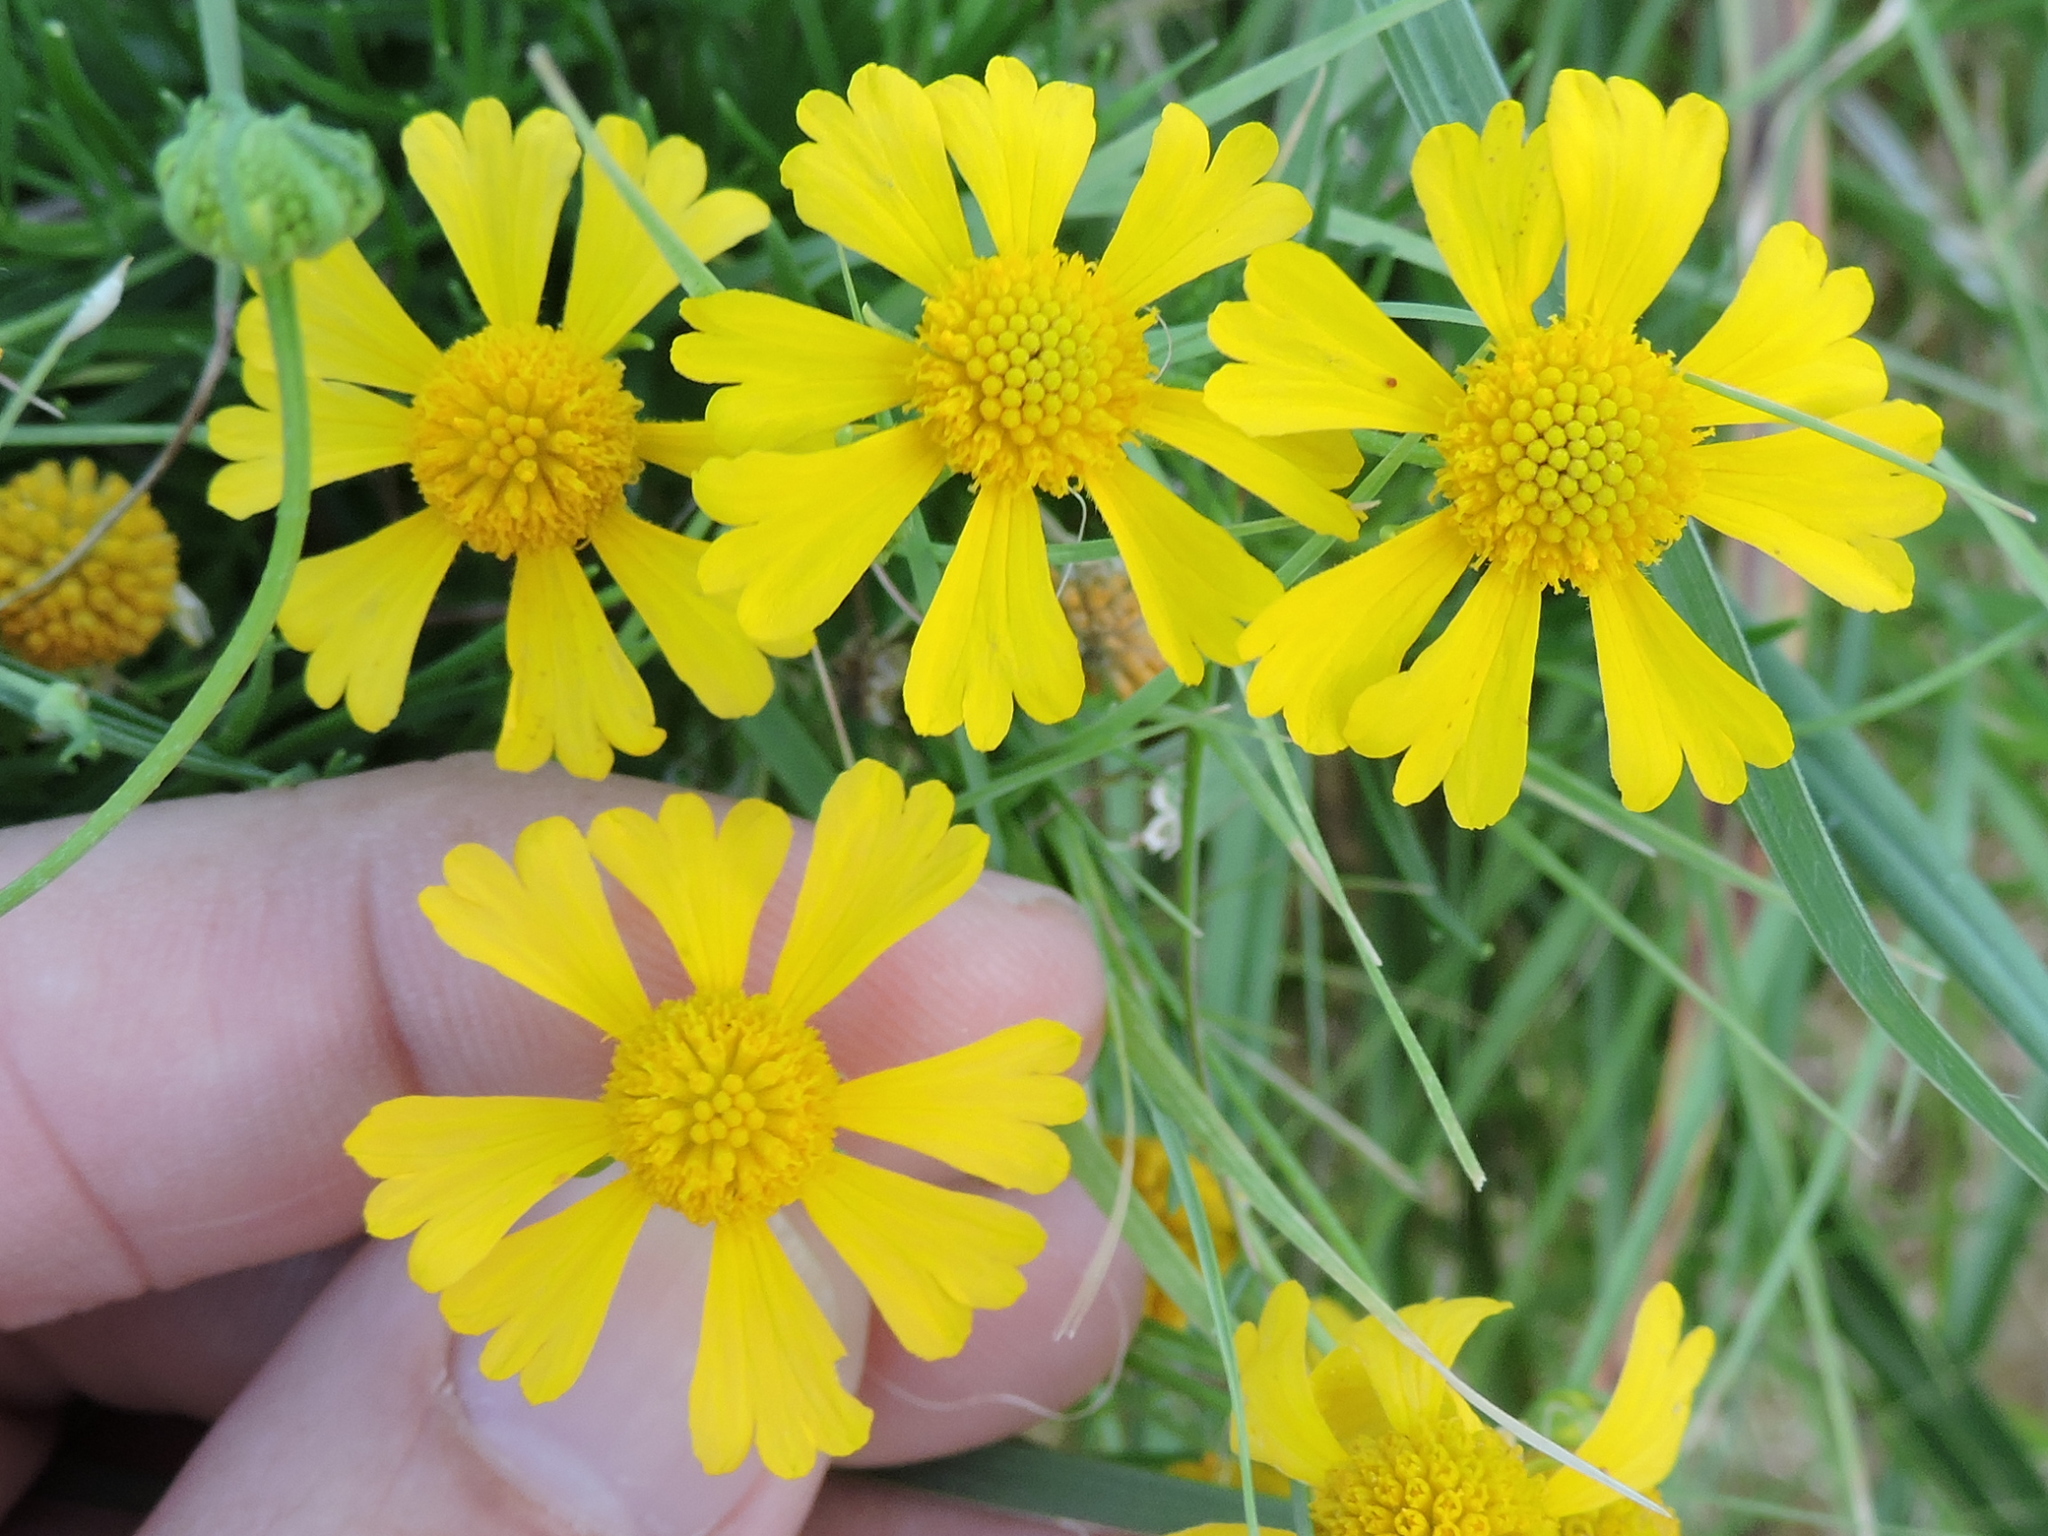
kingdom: Plantae
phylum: Tracheophyta
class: Magnoliopsida
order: Asterales
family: Asteraceae
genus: Helenium
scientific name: Helenium amarum
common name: Bitter sneezeweed
